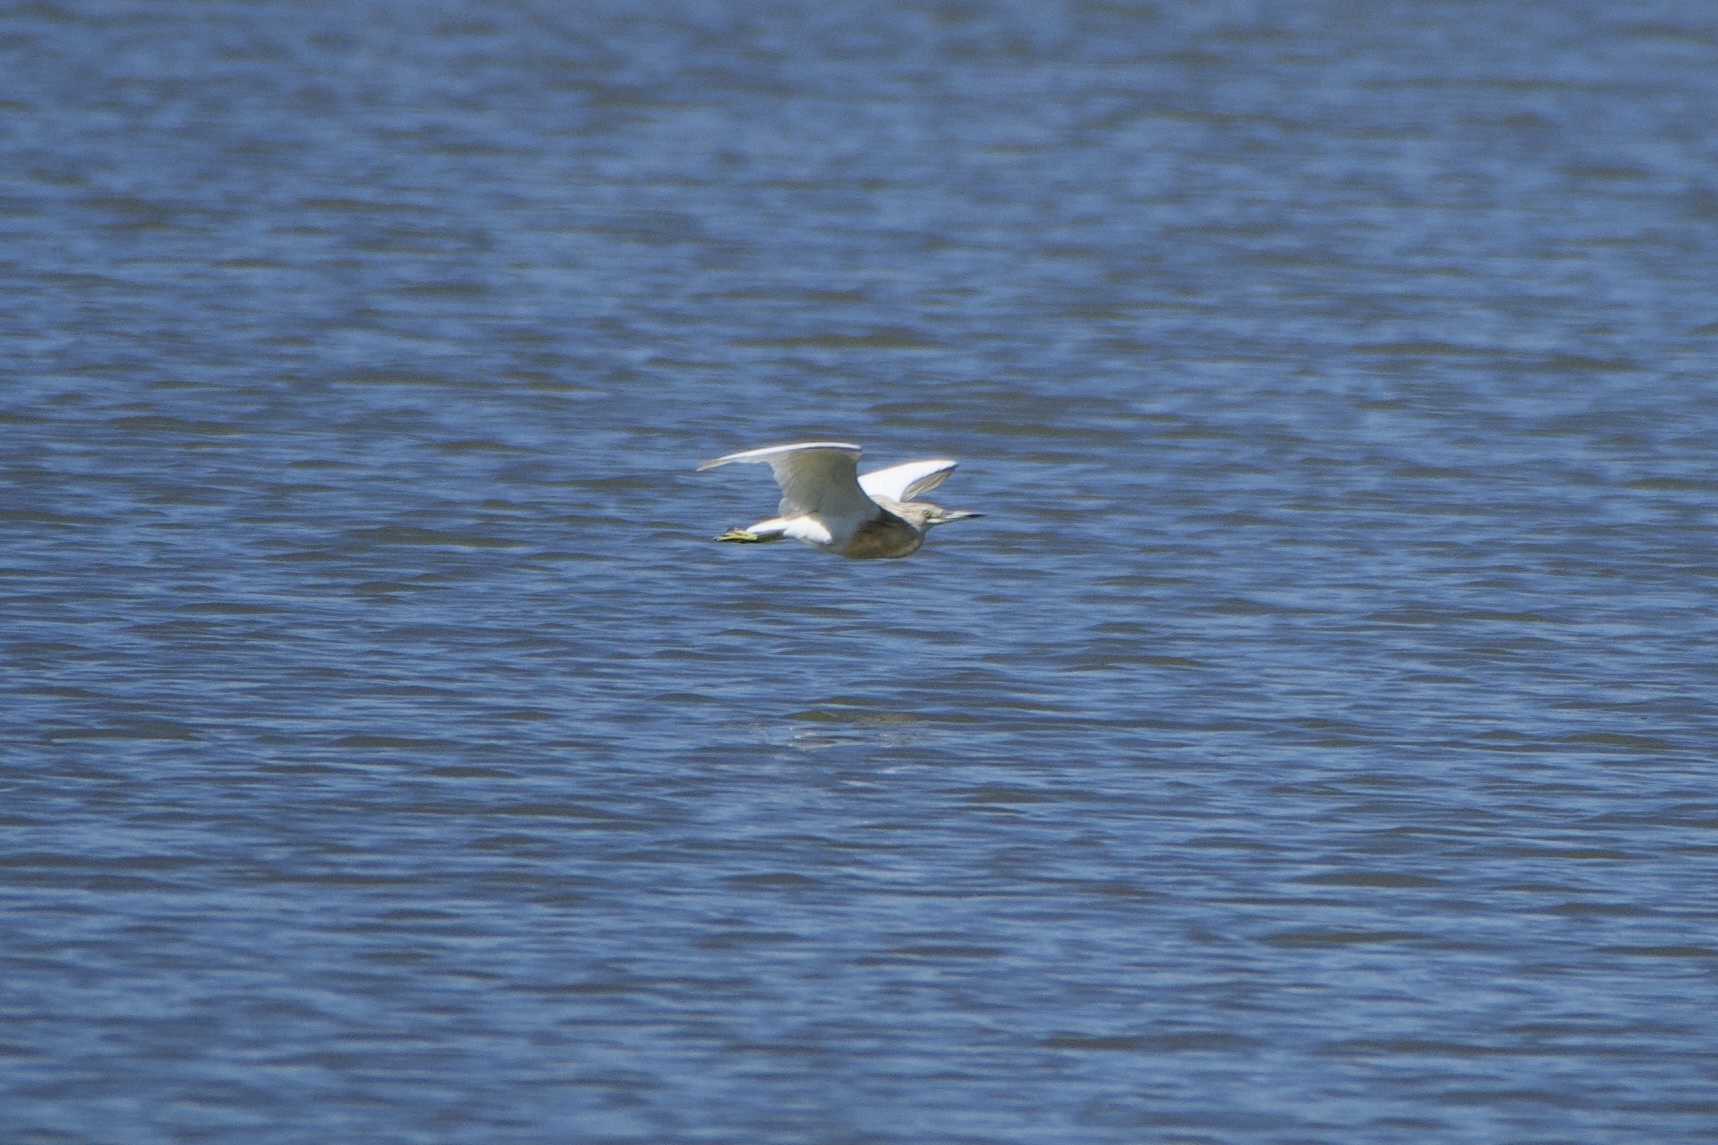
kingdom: Animalia
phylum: Chordata
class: Aves
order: Pelecaniformes
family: Ardeidae
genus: Ardeola
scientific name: Ardeola ralloides
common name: Squacco heron
